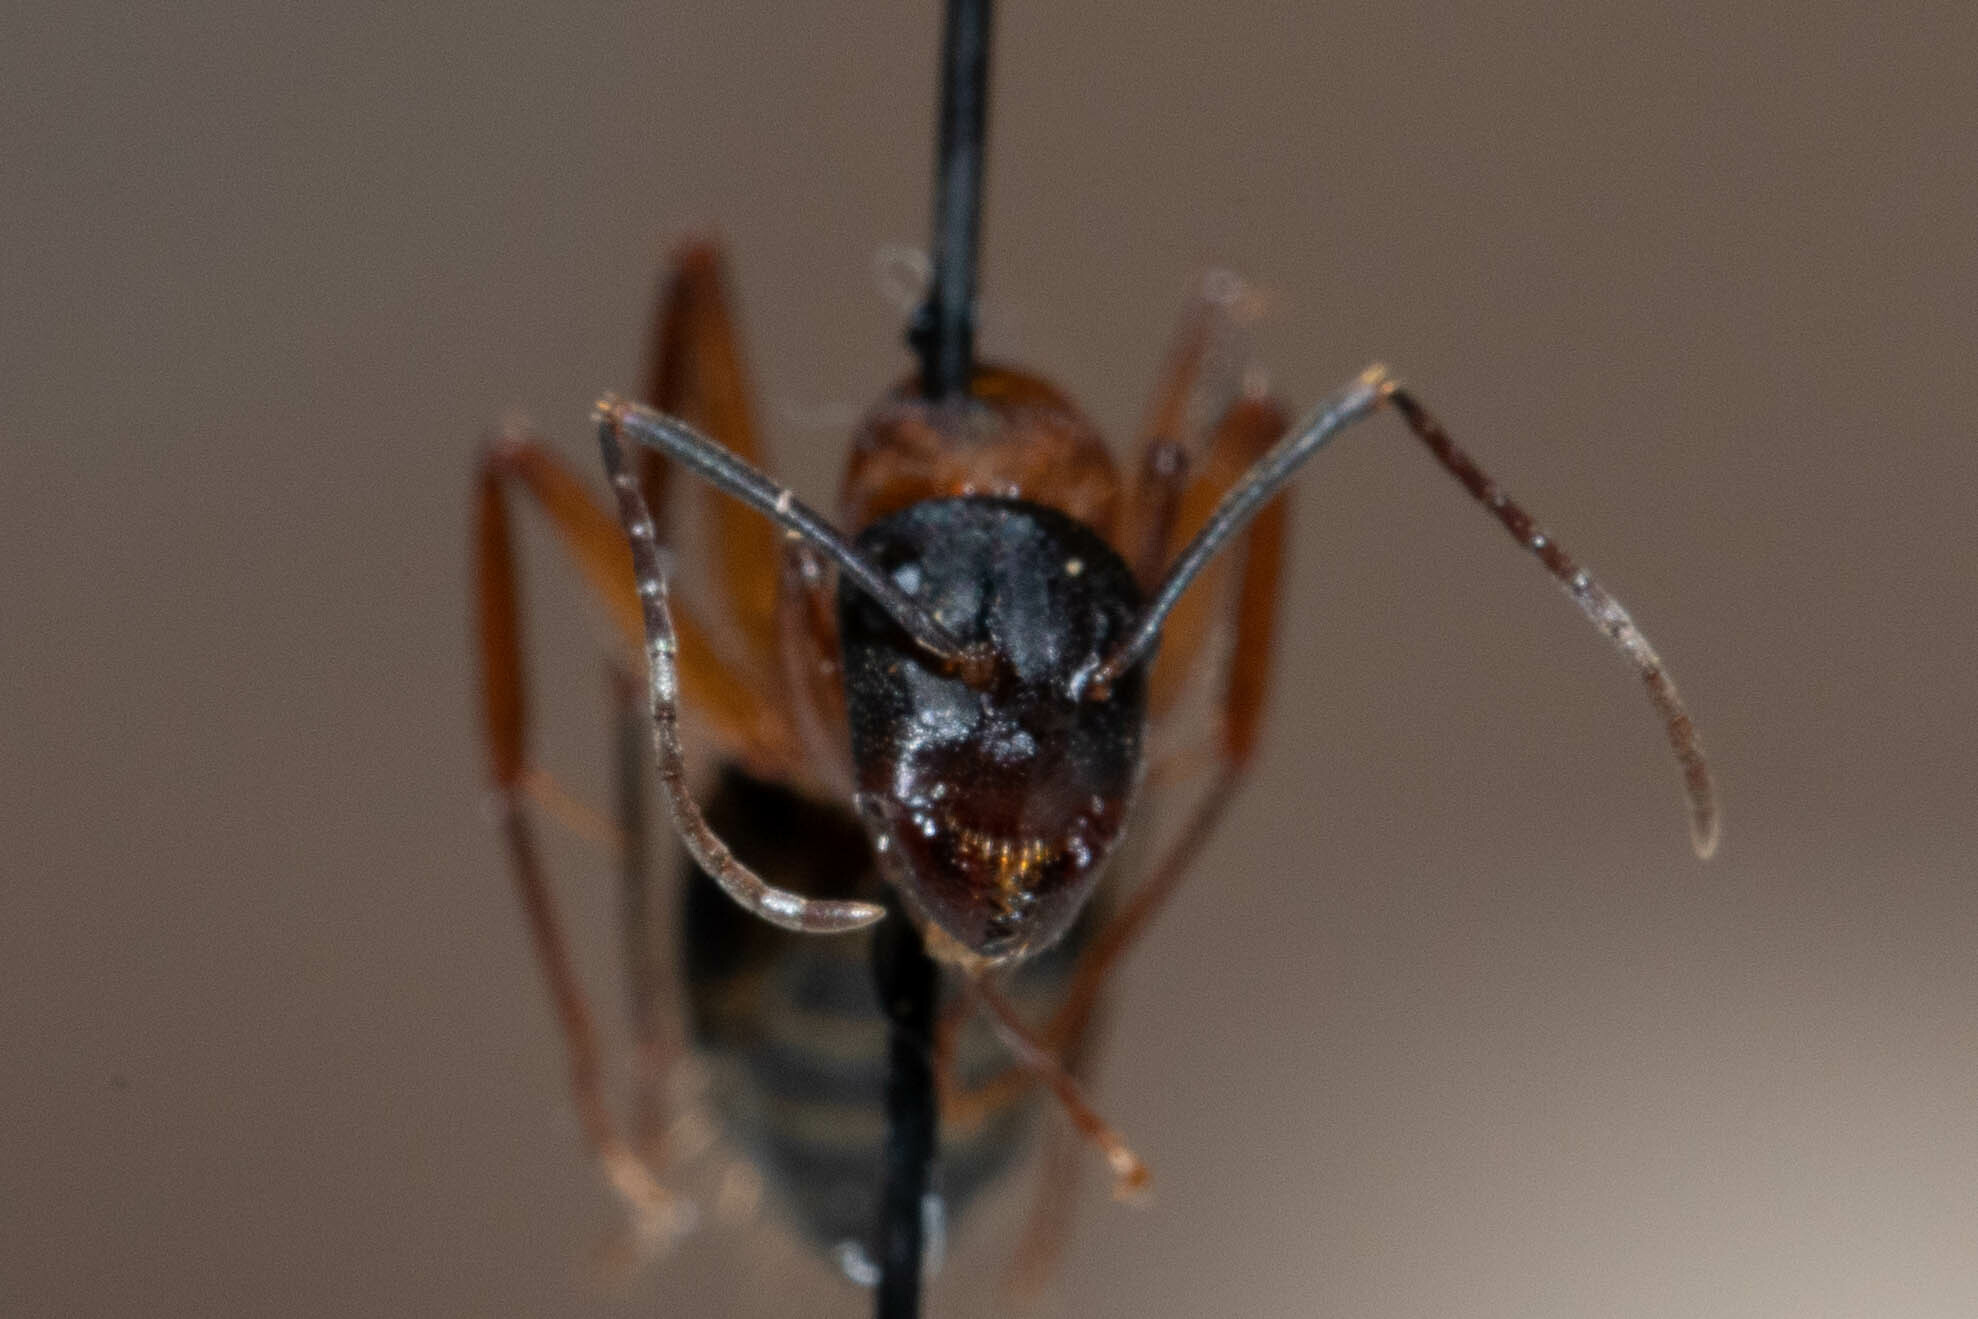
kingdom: Animalia
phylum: Arthropoda
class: Insecta
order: Hymenoptera
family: Formicidae
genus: Camponotus
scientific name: Camponotus vicinus
